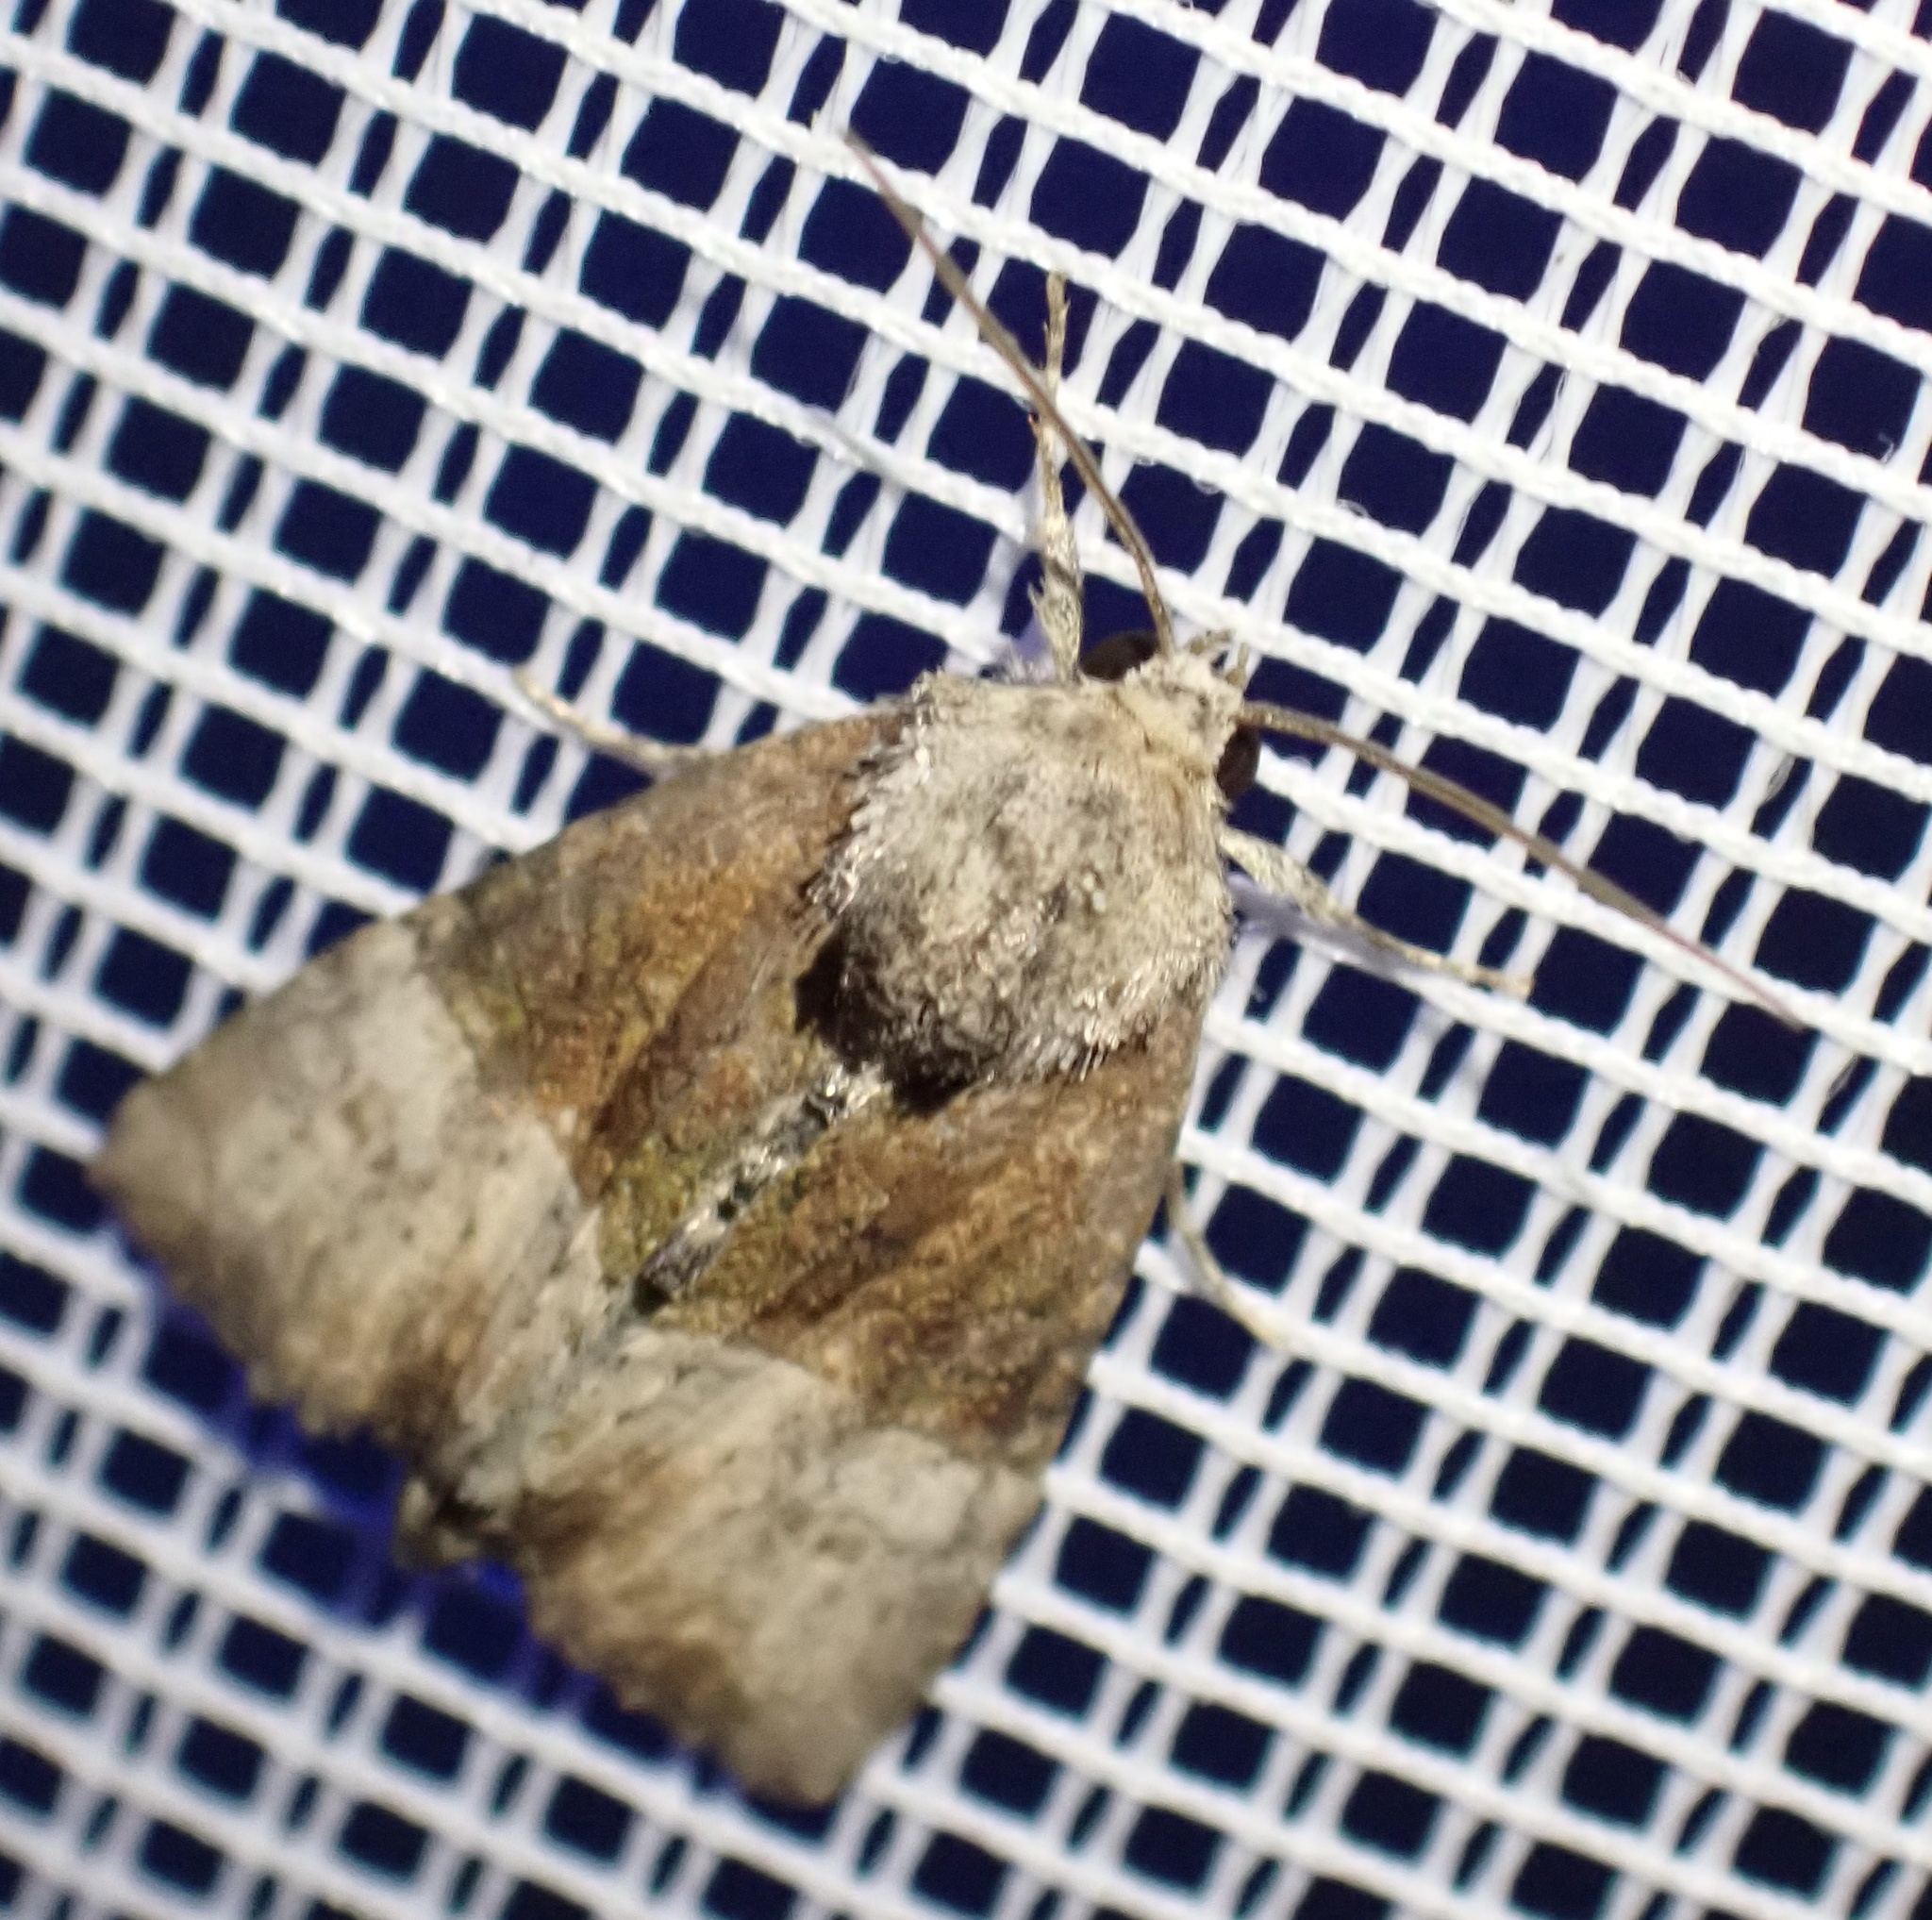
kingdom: Animalia
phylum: Arthropoda
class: Insecta
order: Lepidoptera
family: Noctuidae
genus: Mesoligia
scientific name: Mesoligia furuncula
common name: Cloaked minor
